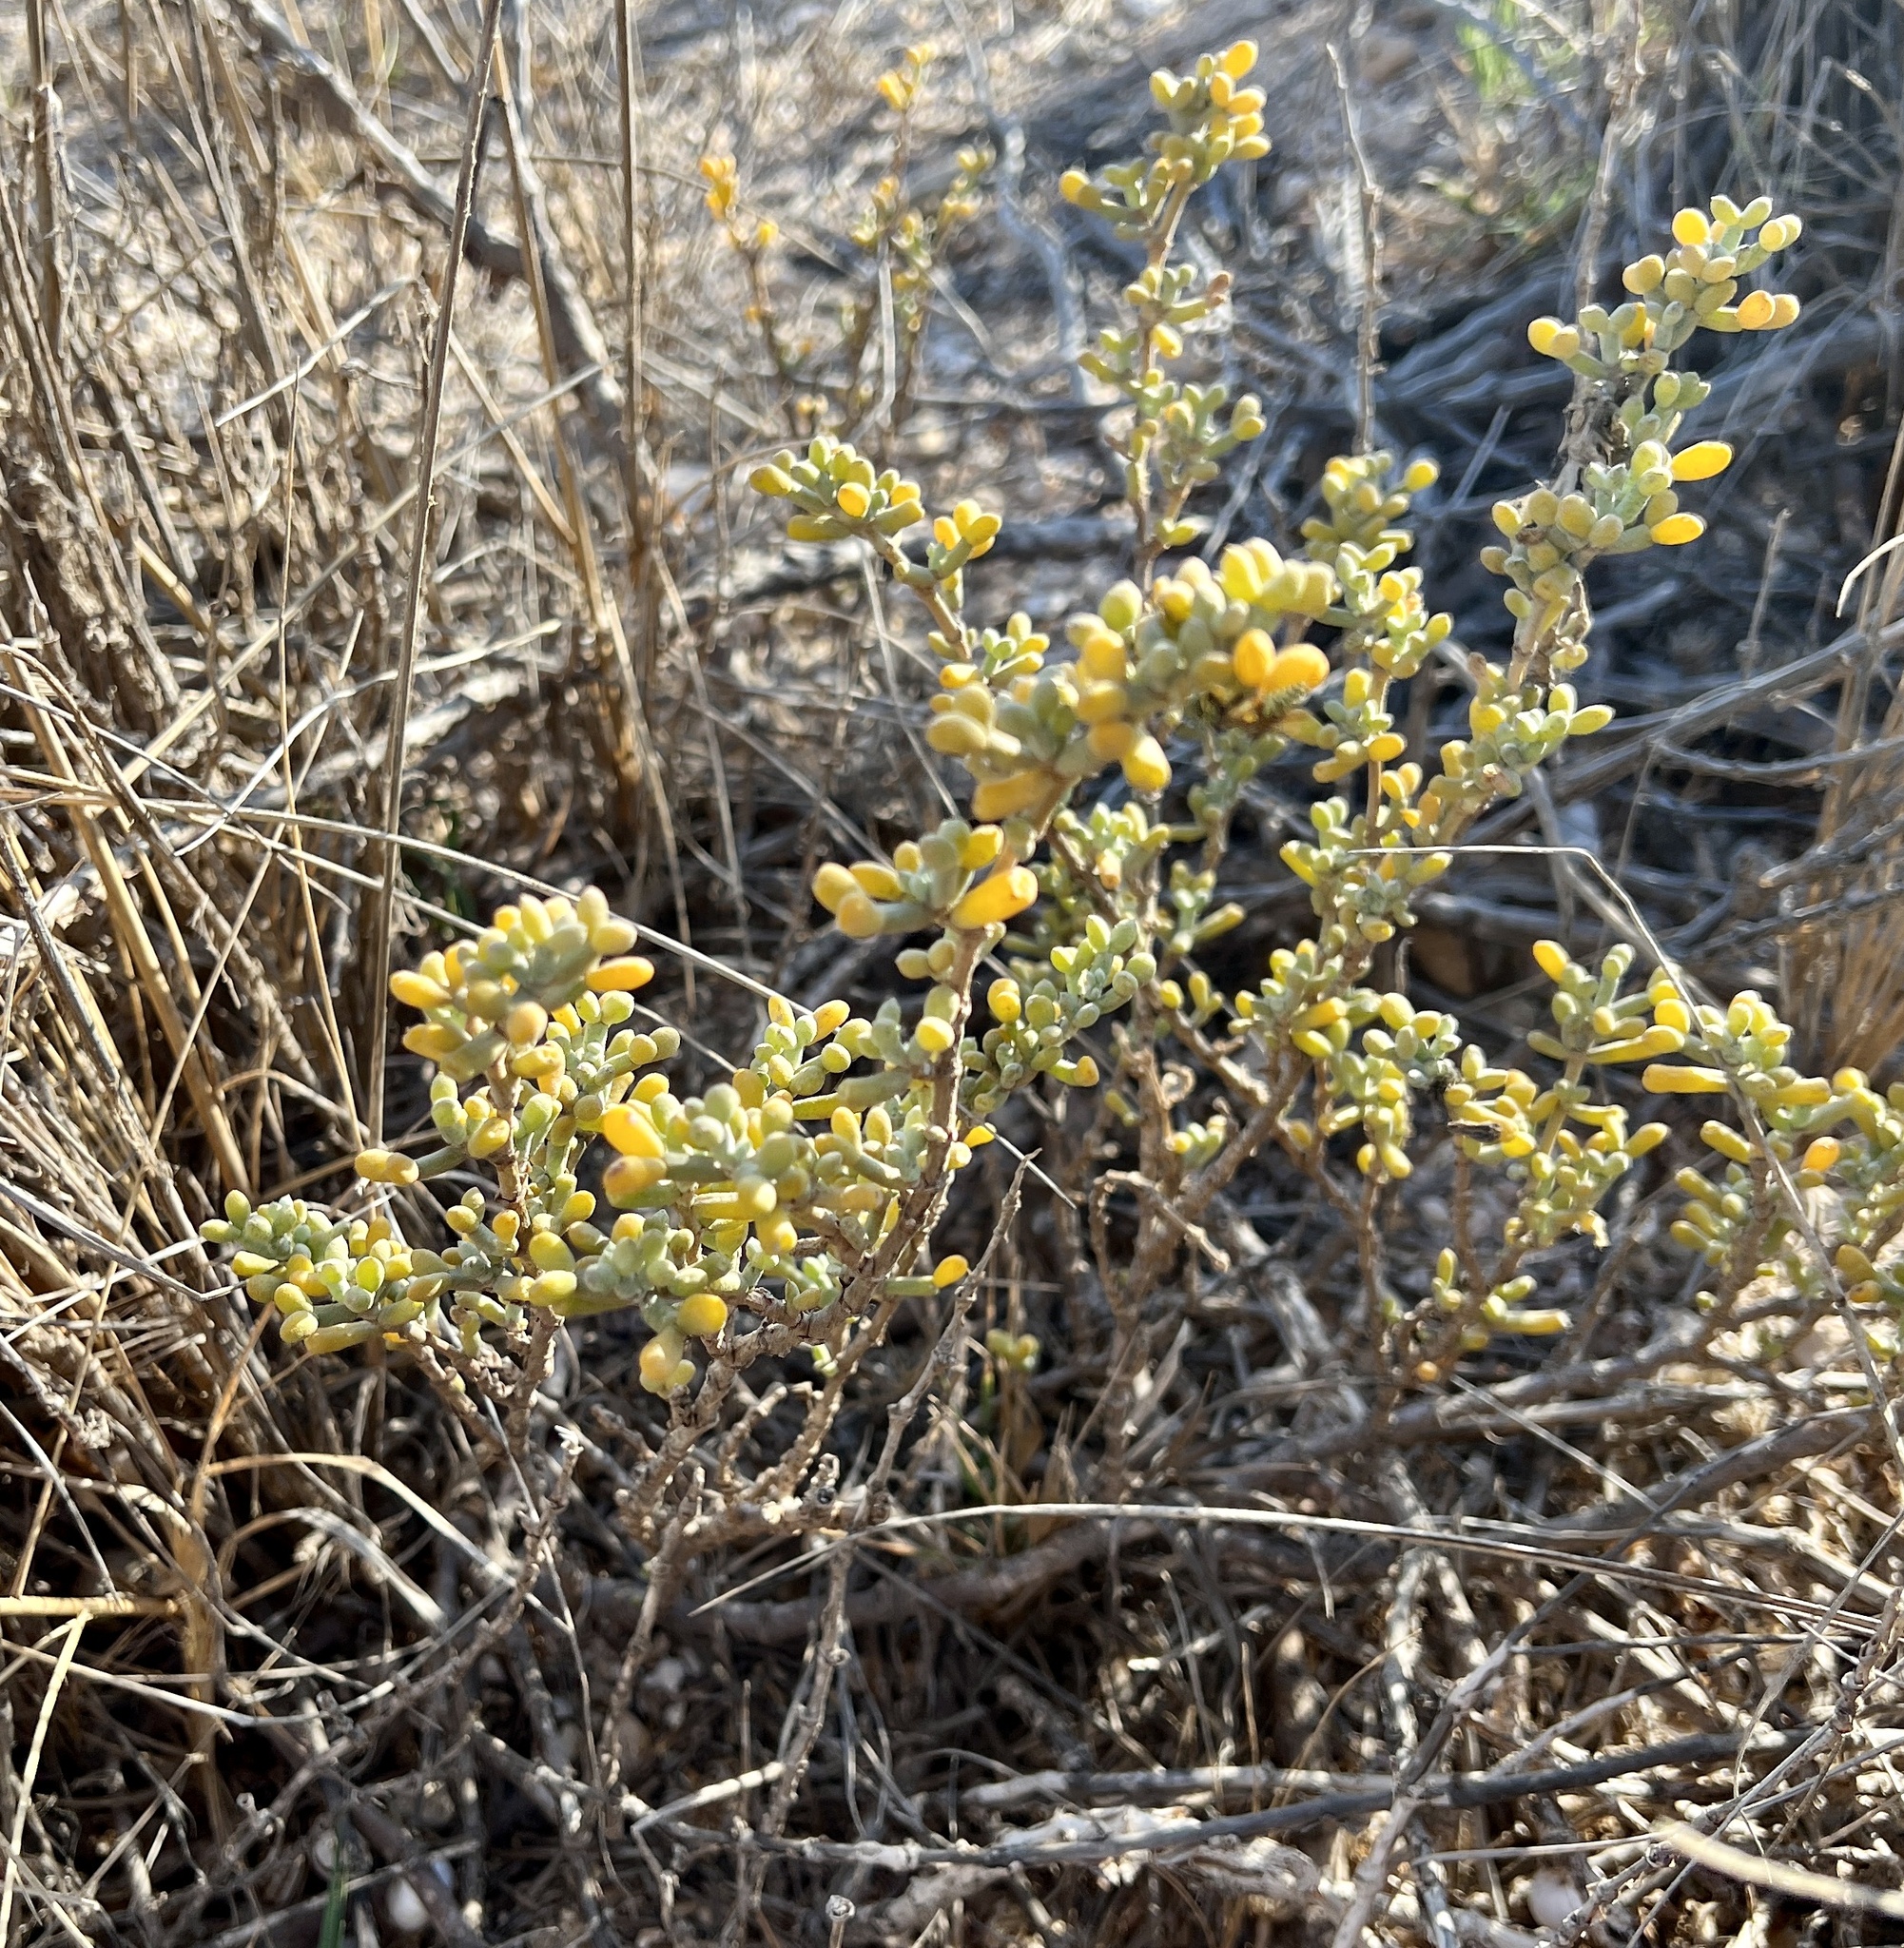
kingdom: Plantae
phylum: Tracheophyta
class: Magnoliopsida
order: Zygophyllales
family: Zygophyllaceae
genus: Tetraena
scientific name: Tetraena alba
